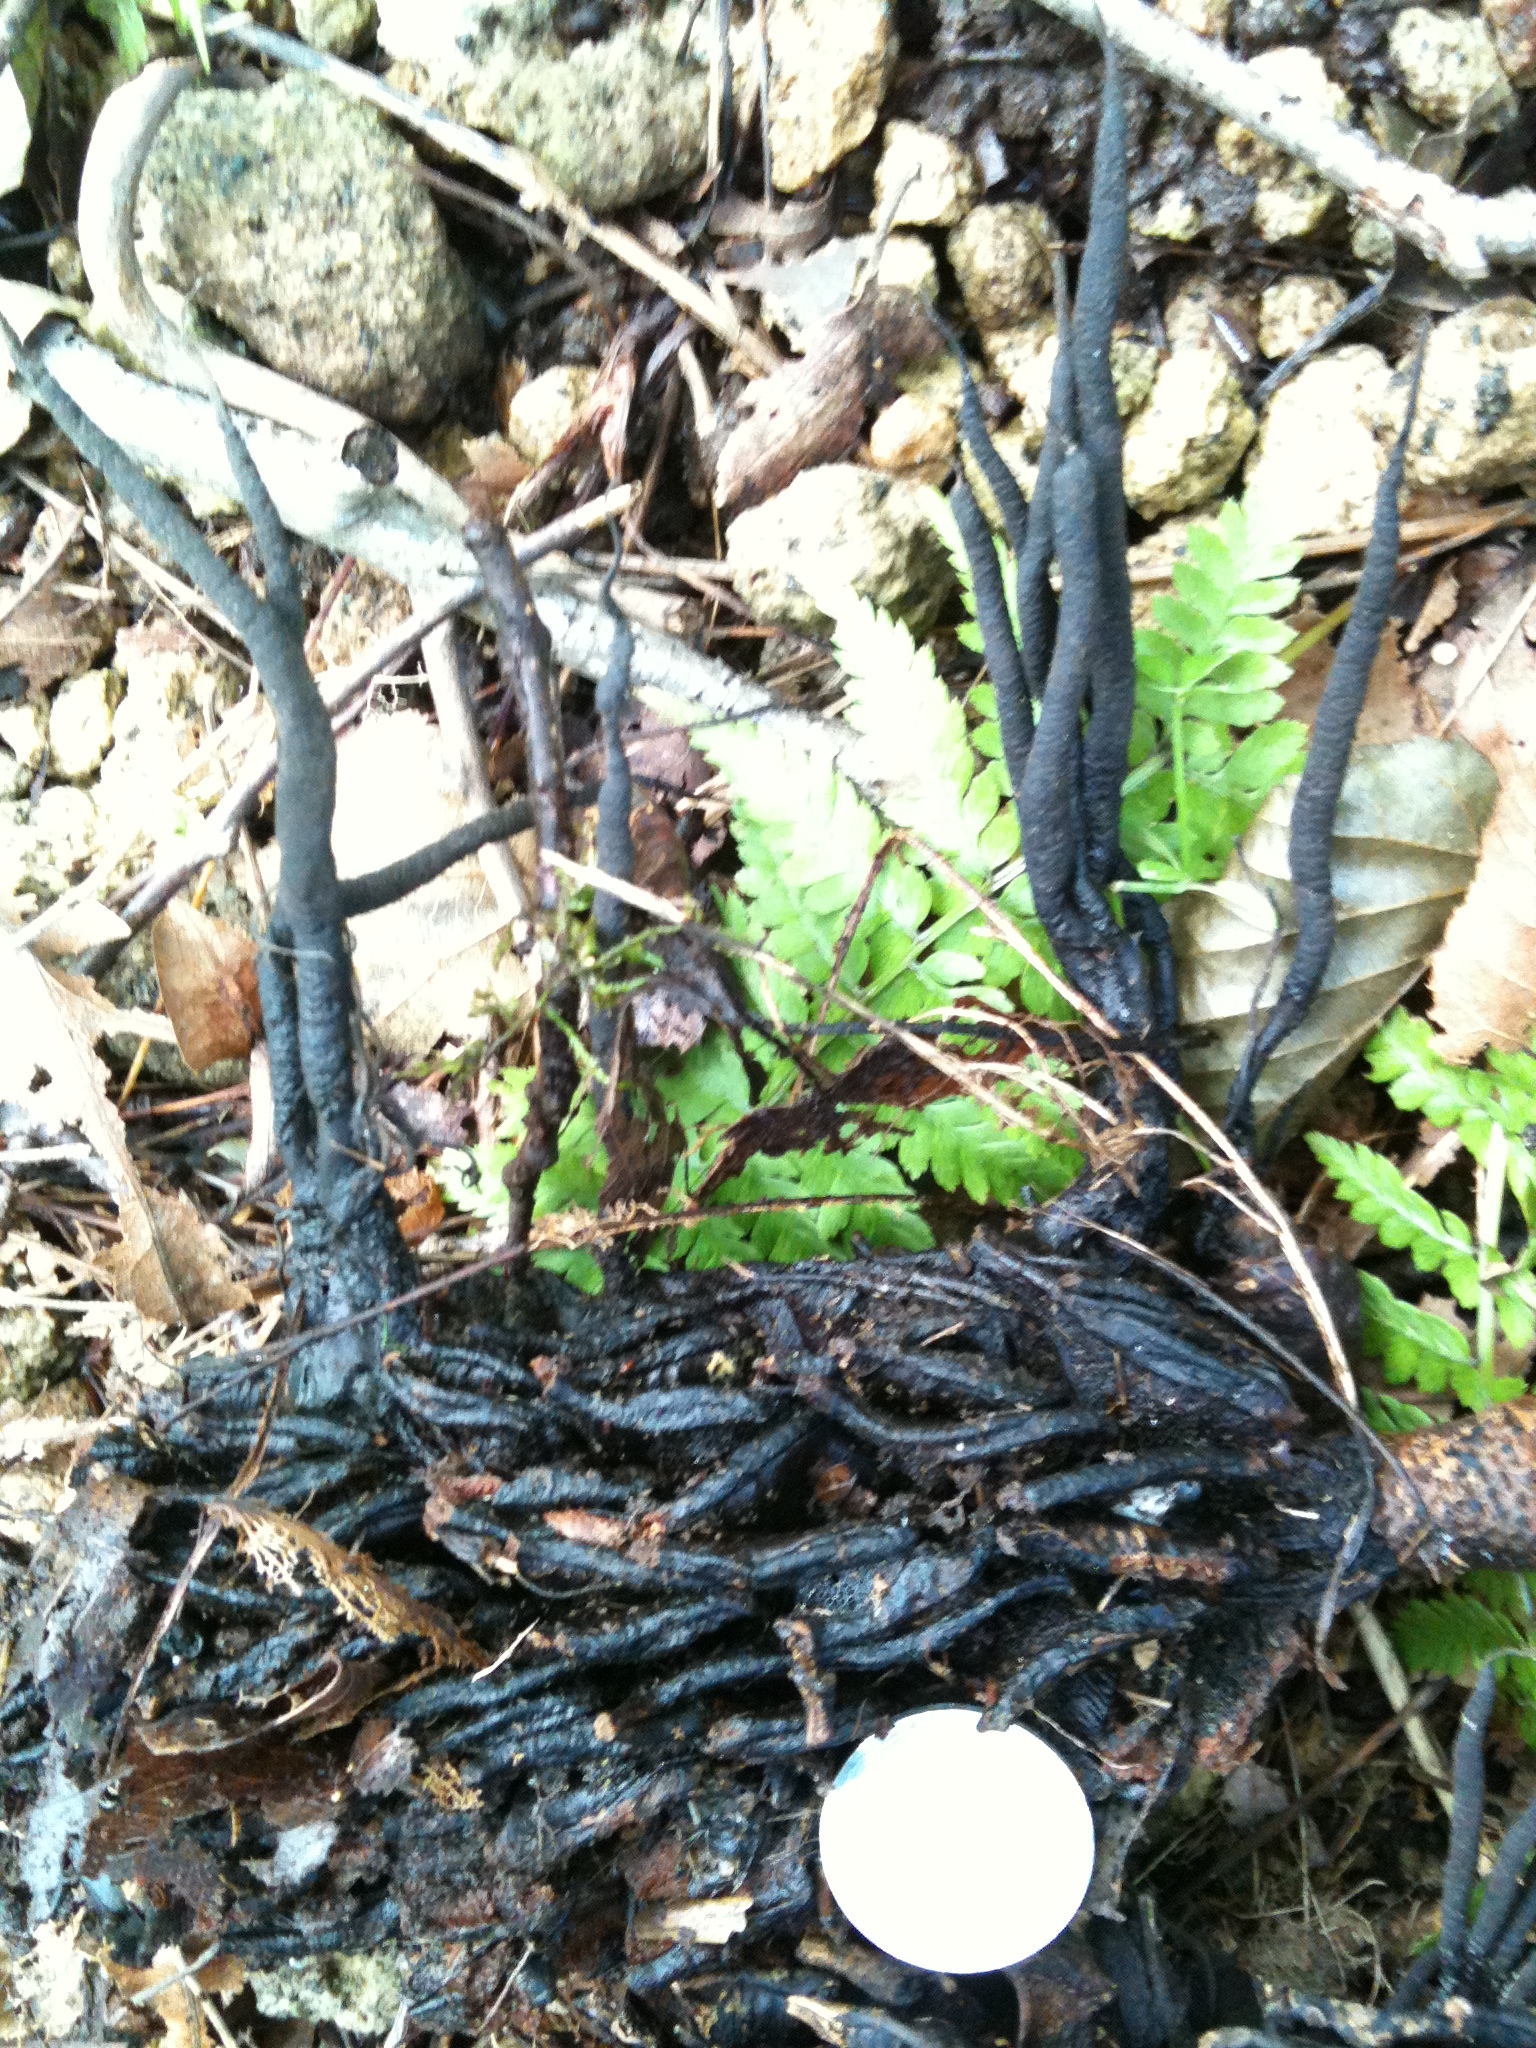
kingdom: Fungi
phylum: Ascomycota
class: Sordariomycetes
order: Xylariales
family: Xylariaceae
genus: Xylaria
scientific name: Xylaria magnoliae
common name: Magnolia-cone xylaria
